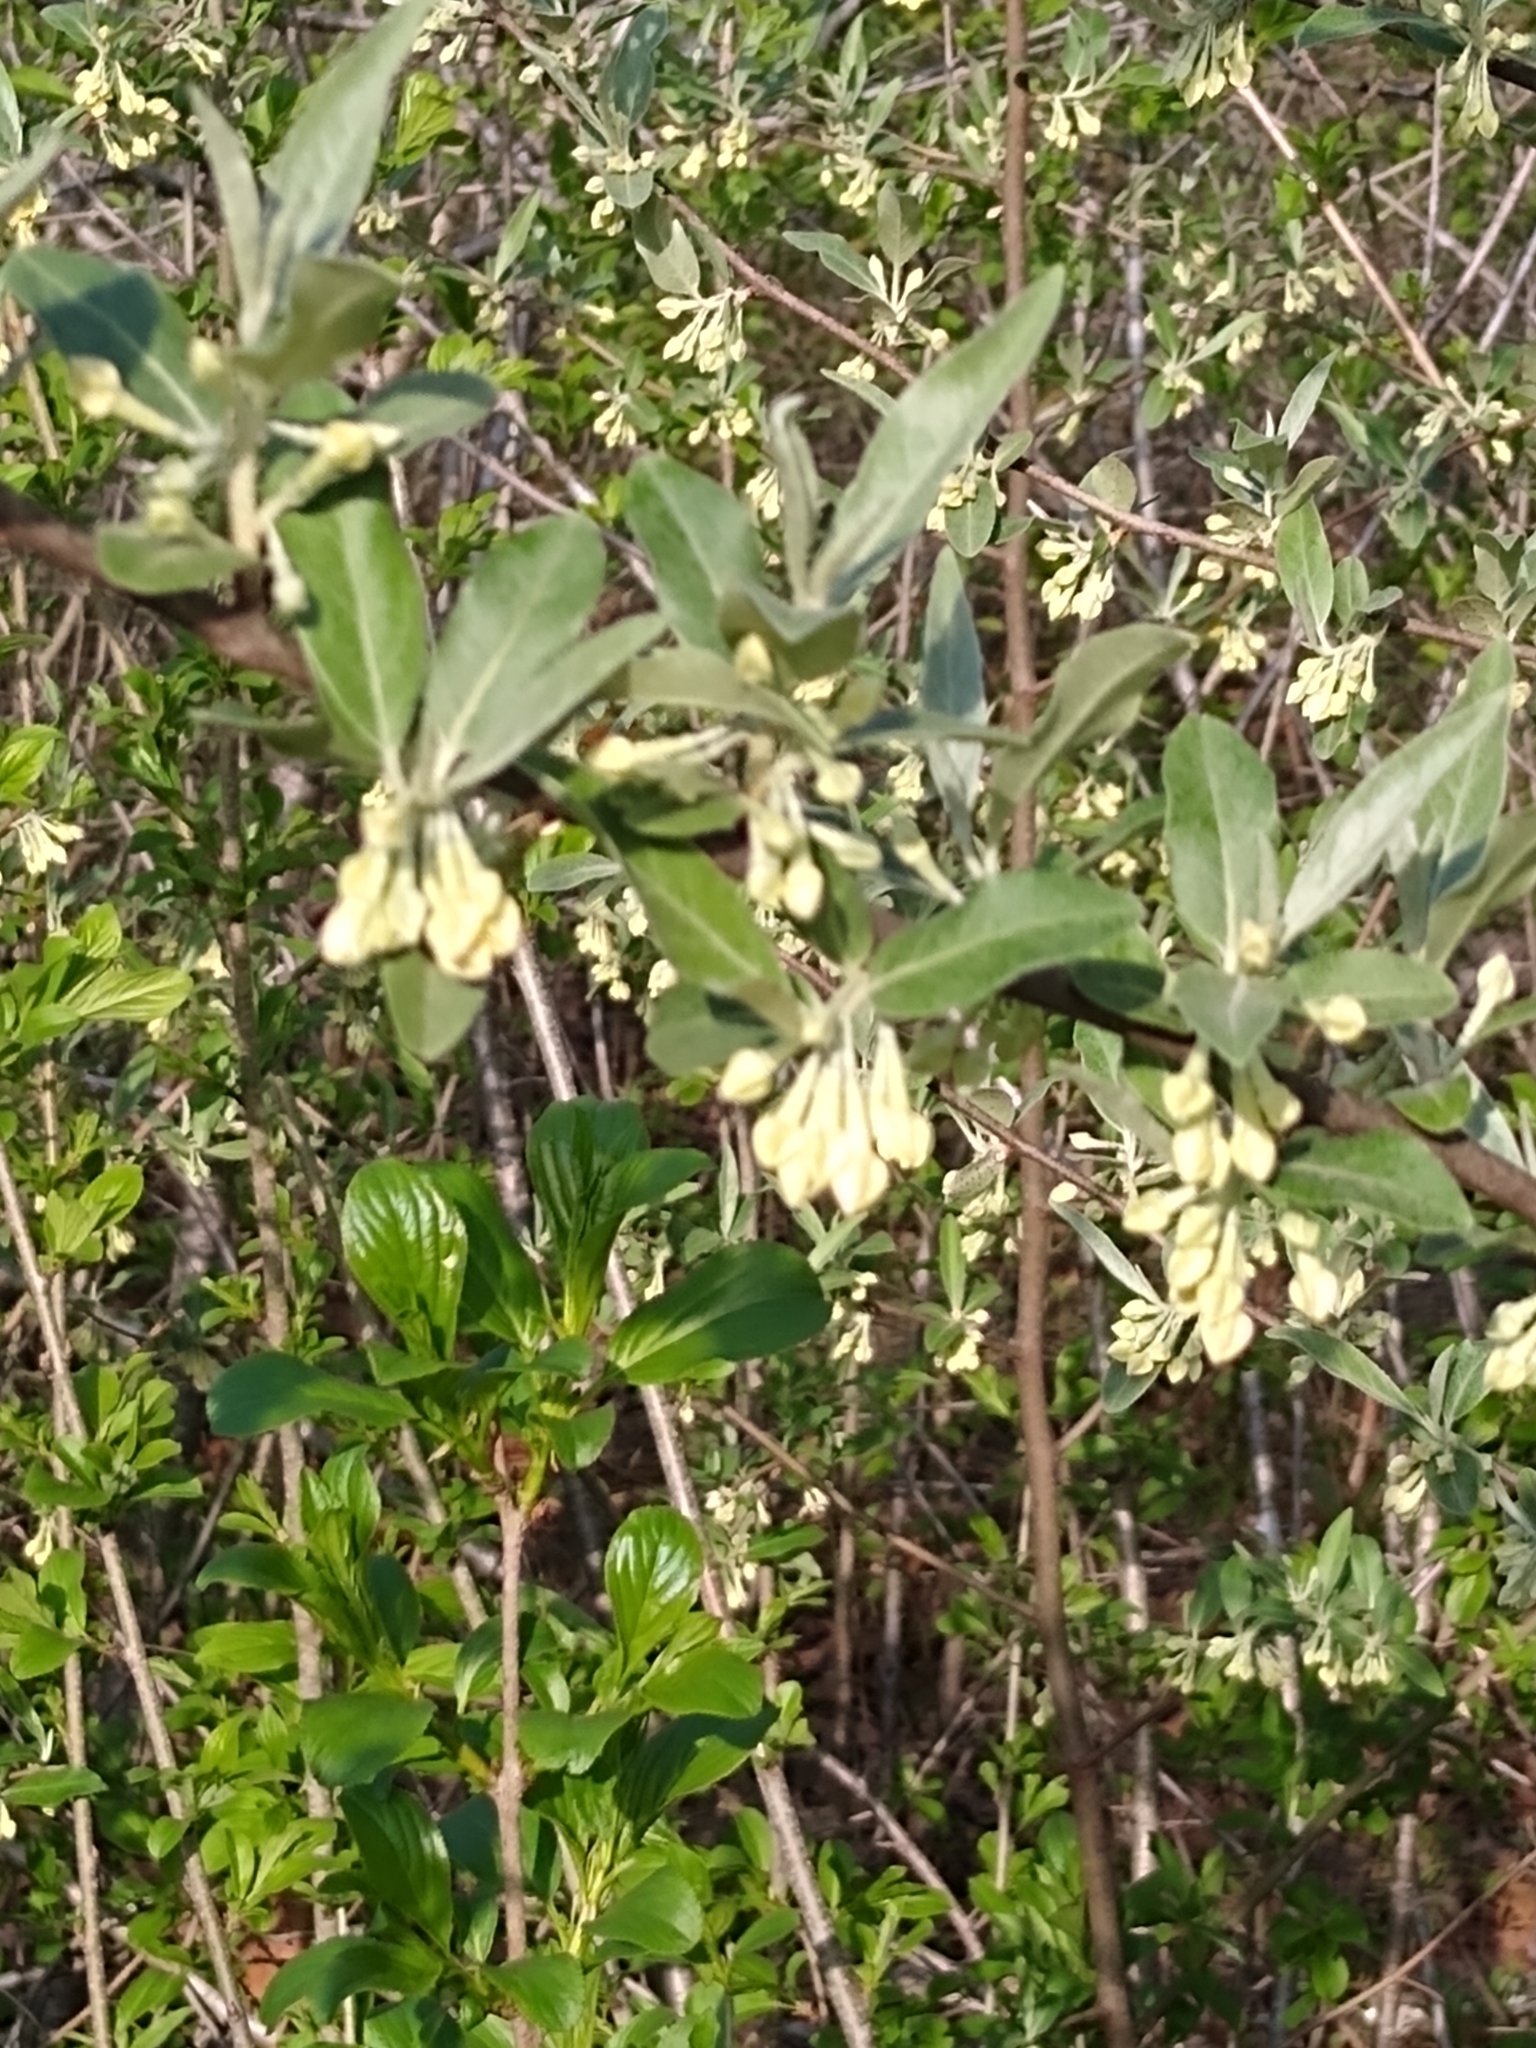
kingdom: Plantae
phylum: Tracheophyta
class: Magnoliopsida
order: Rosales
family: Elaeagnaceae
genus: Elaeagnus
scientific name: Elaeagnus umbellata
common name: Autumn olive
